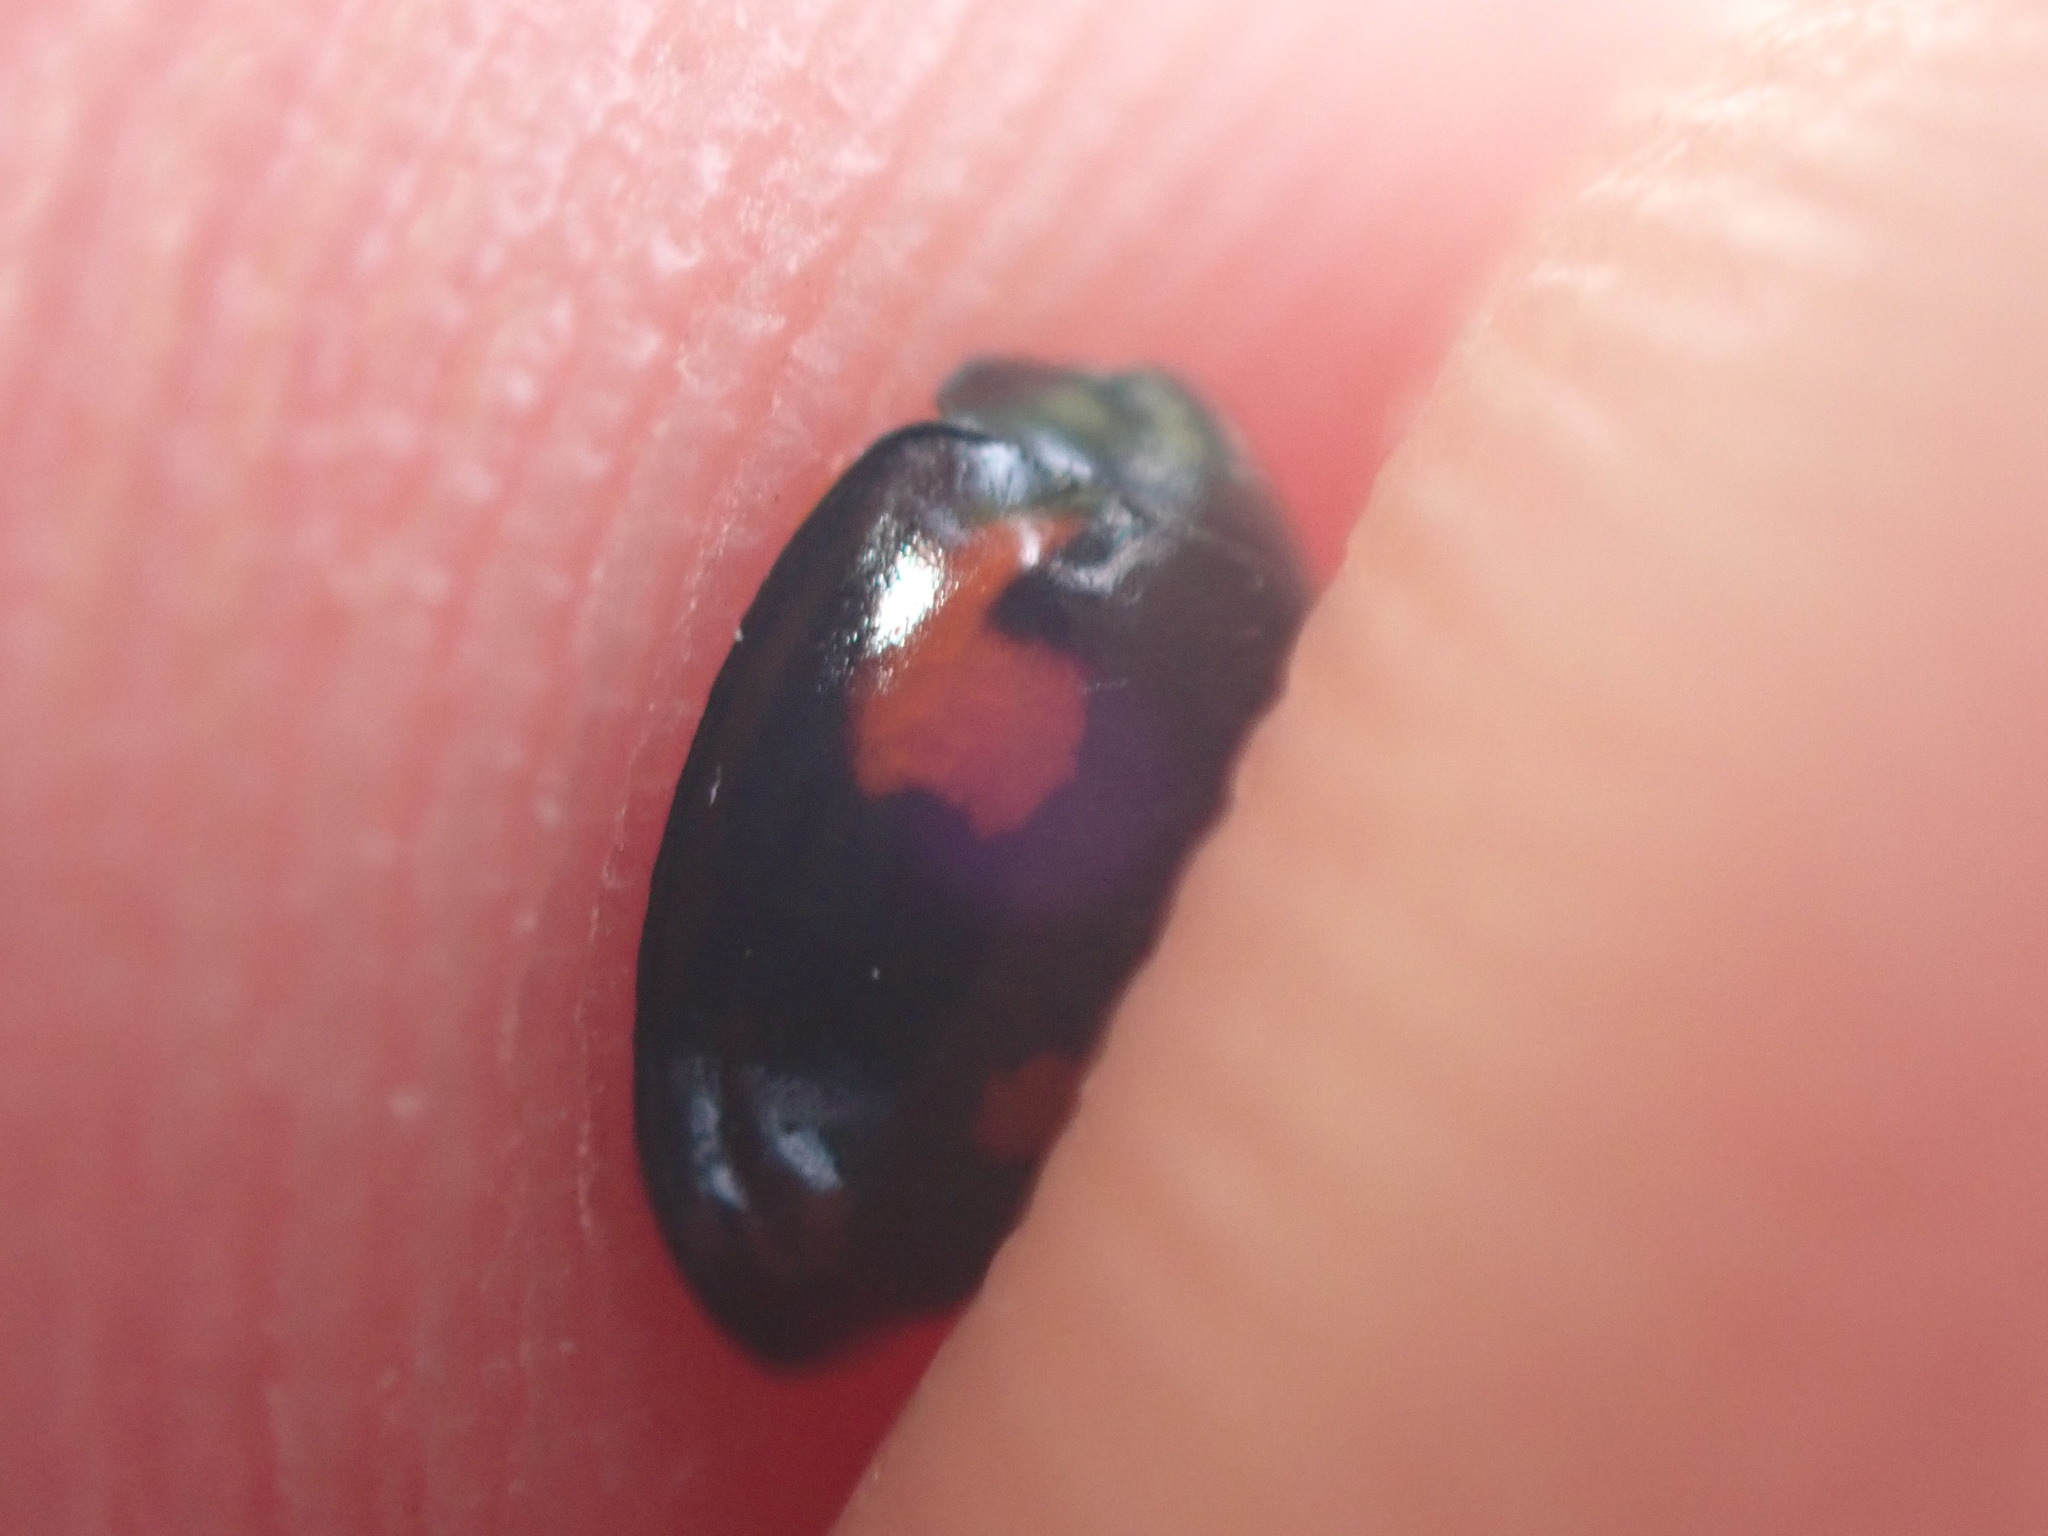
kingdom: Animalia
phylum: Arthropoda
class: Insecta
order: Coleoptera
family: Coccinellidae
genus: Brumus
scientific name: Brumus quadripustulatus
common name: Ladybird beetle
